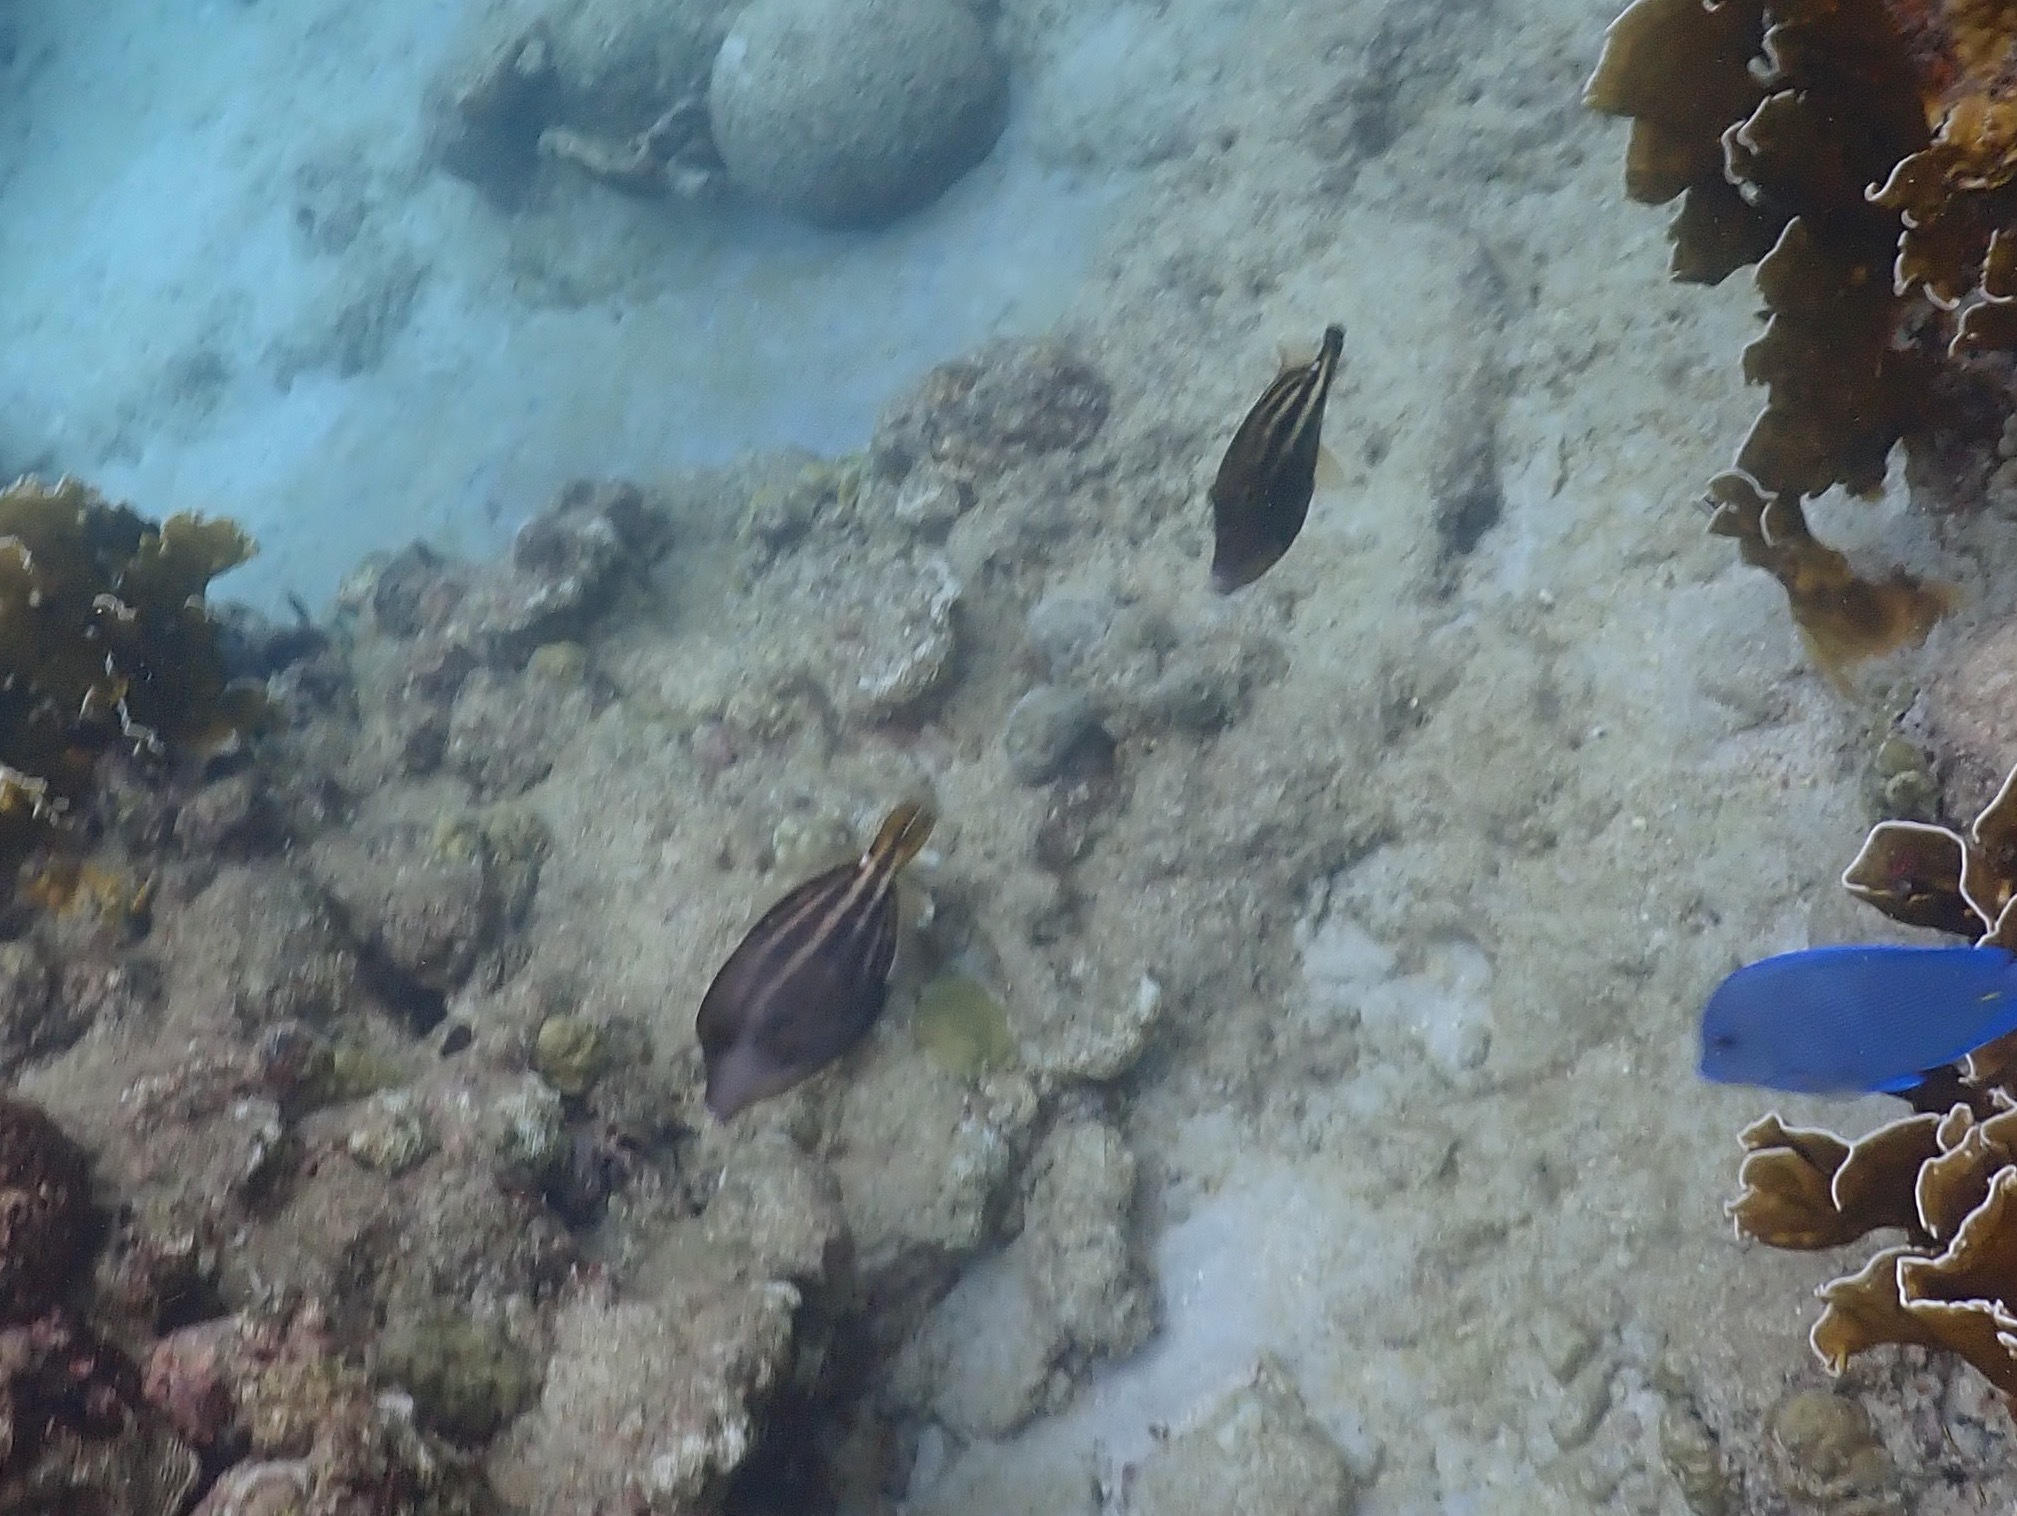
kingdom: Animalia
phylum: Chordata
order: Tetraodontiformes
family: Monacanthidae
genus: Cantherhines
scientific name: Cantherhines pullus
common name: Orangespotted filefish
